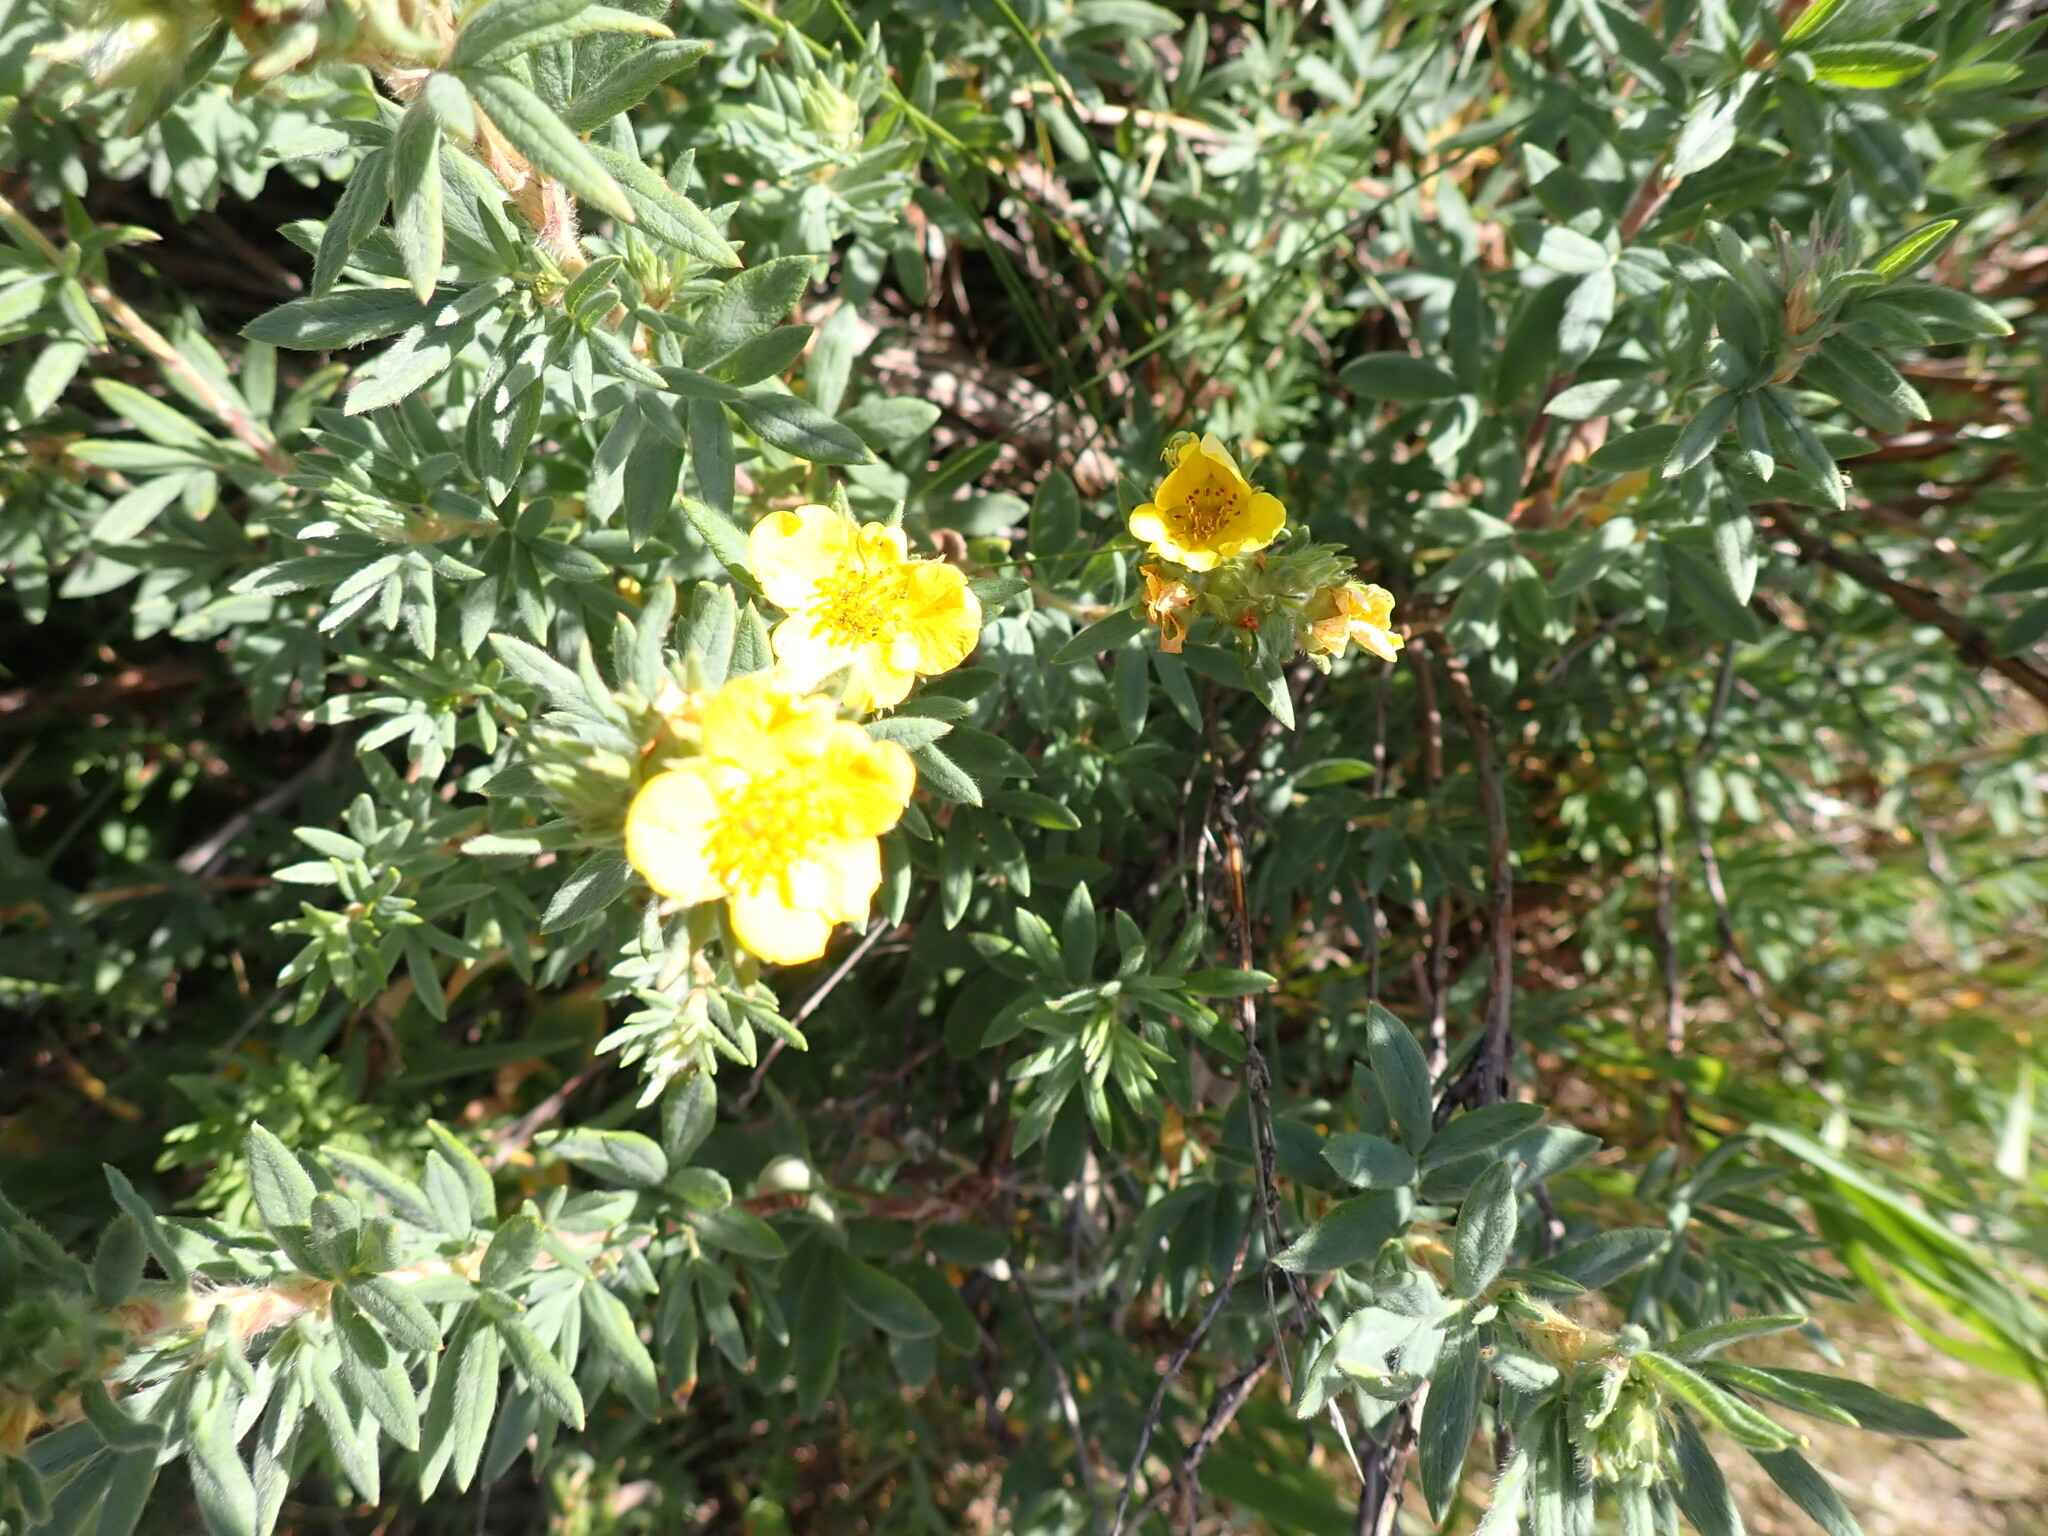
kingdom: Plantae
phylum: Tracheophyta
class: Magnoliopsida
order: Rosales
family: Rosaceae
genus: Dasiphora
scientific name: Dasiphora fruticosa
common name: Shrubby cinquefoil
